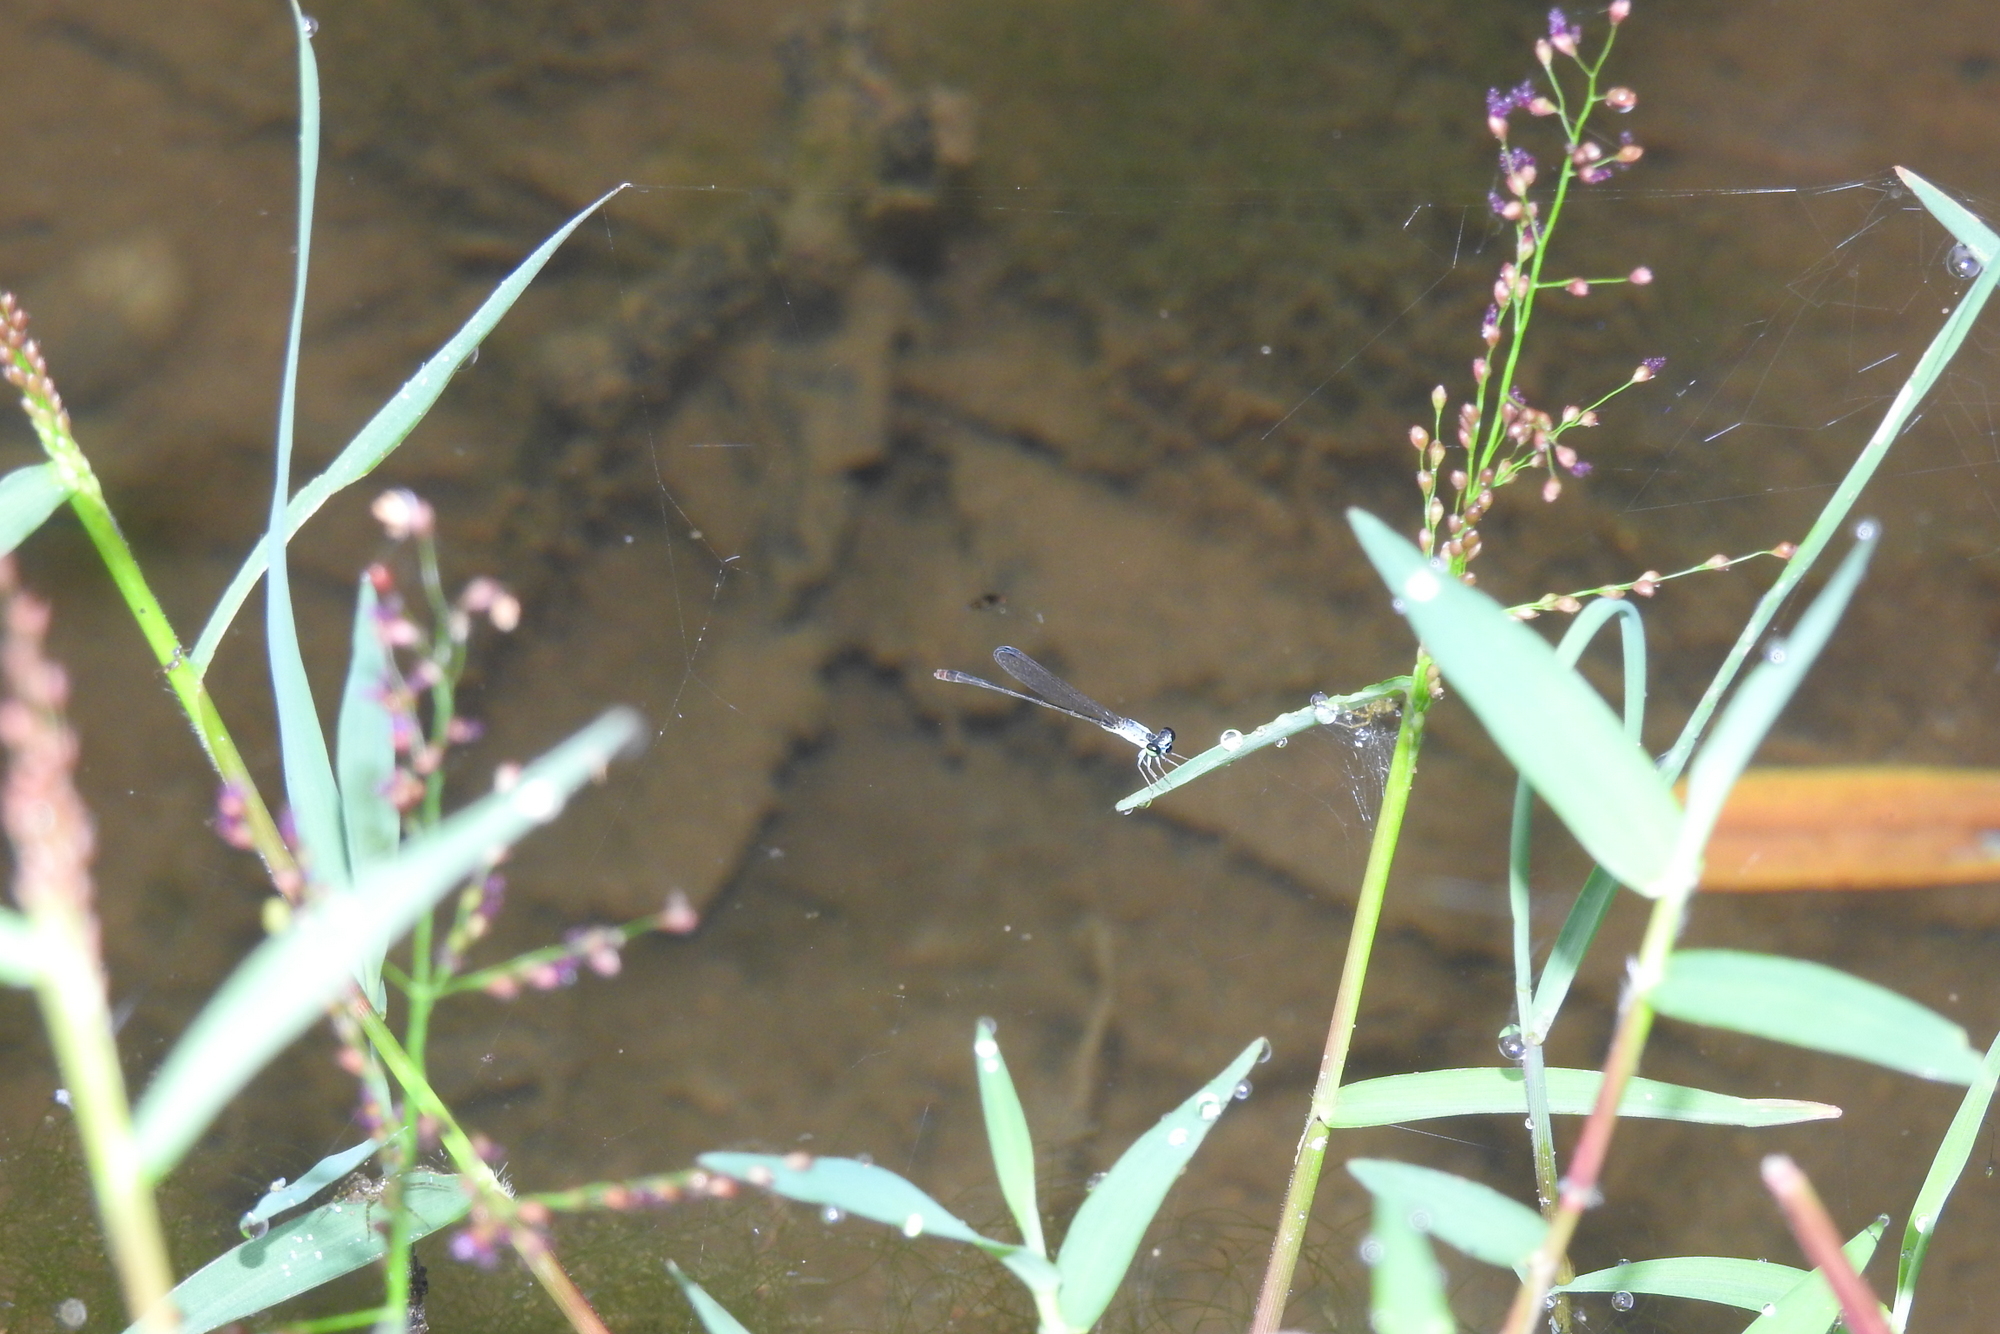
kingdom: Animalia
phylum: Arthropoda
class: Insecta
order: Odonata
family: Coenagrionidae
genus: Agriocnemis
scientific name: Agriocnemis pygmaea
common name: Pygmy wisp
